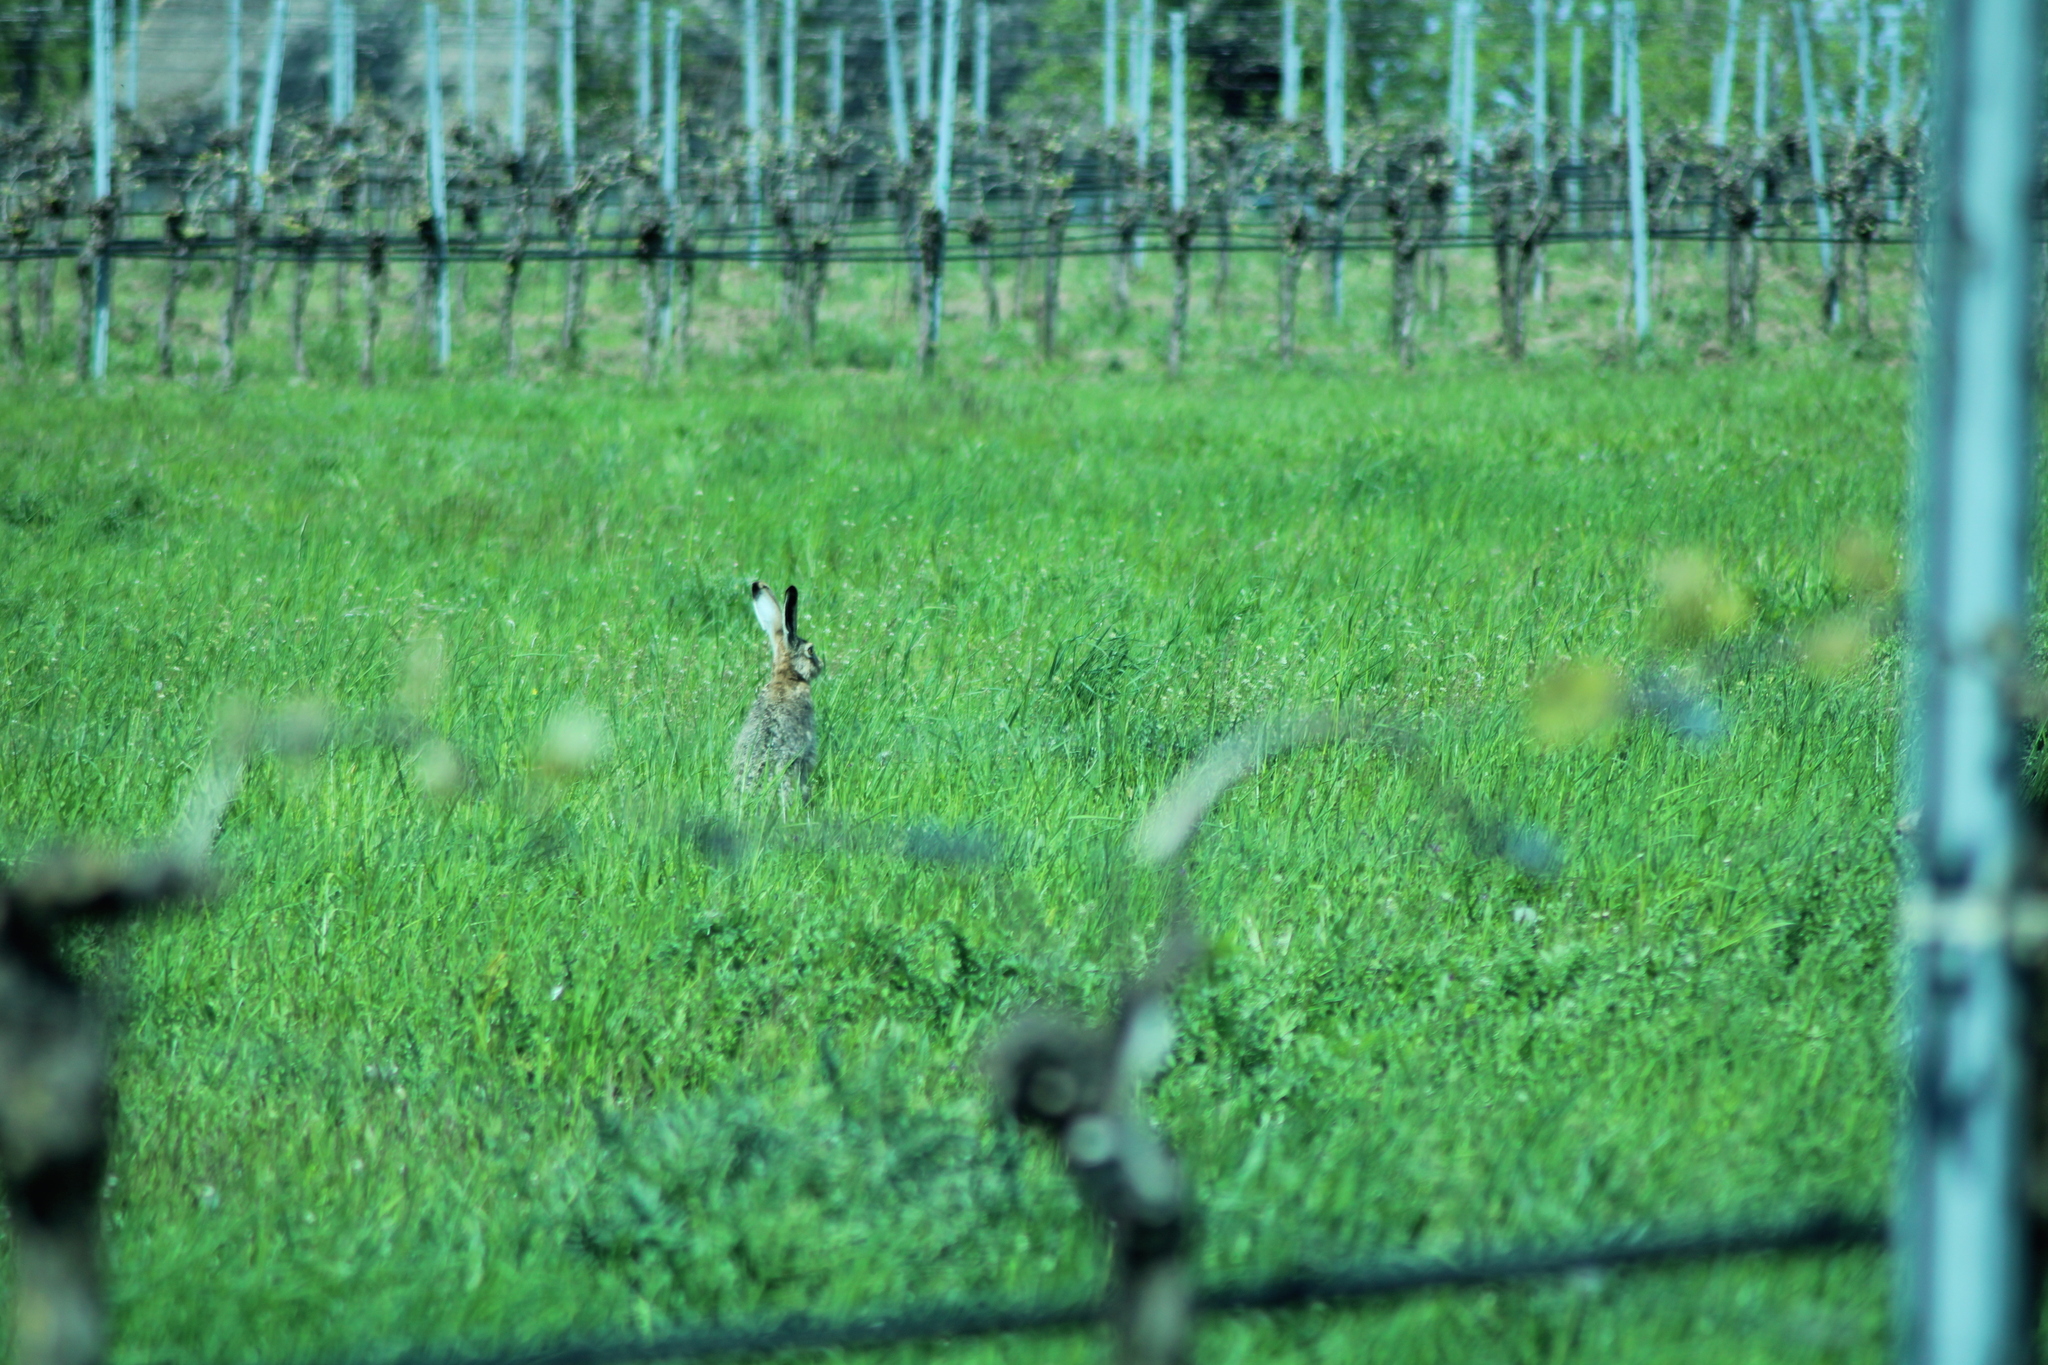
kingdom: Animalia
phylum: Chordata
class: Mammalia
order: Lagomorpha
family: Leporidae
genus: Lepus
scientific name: Lepus europaeus
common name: European hare
